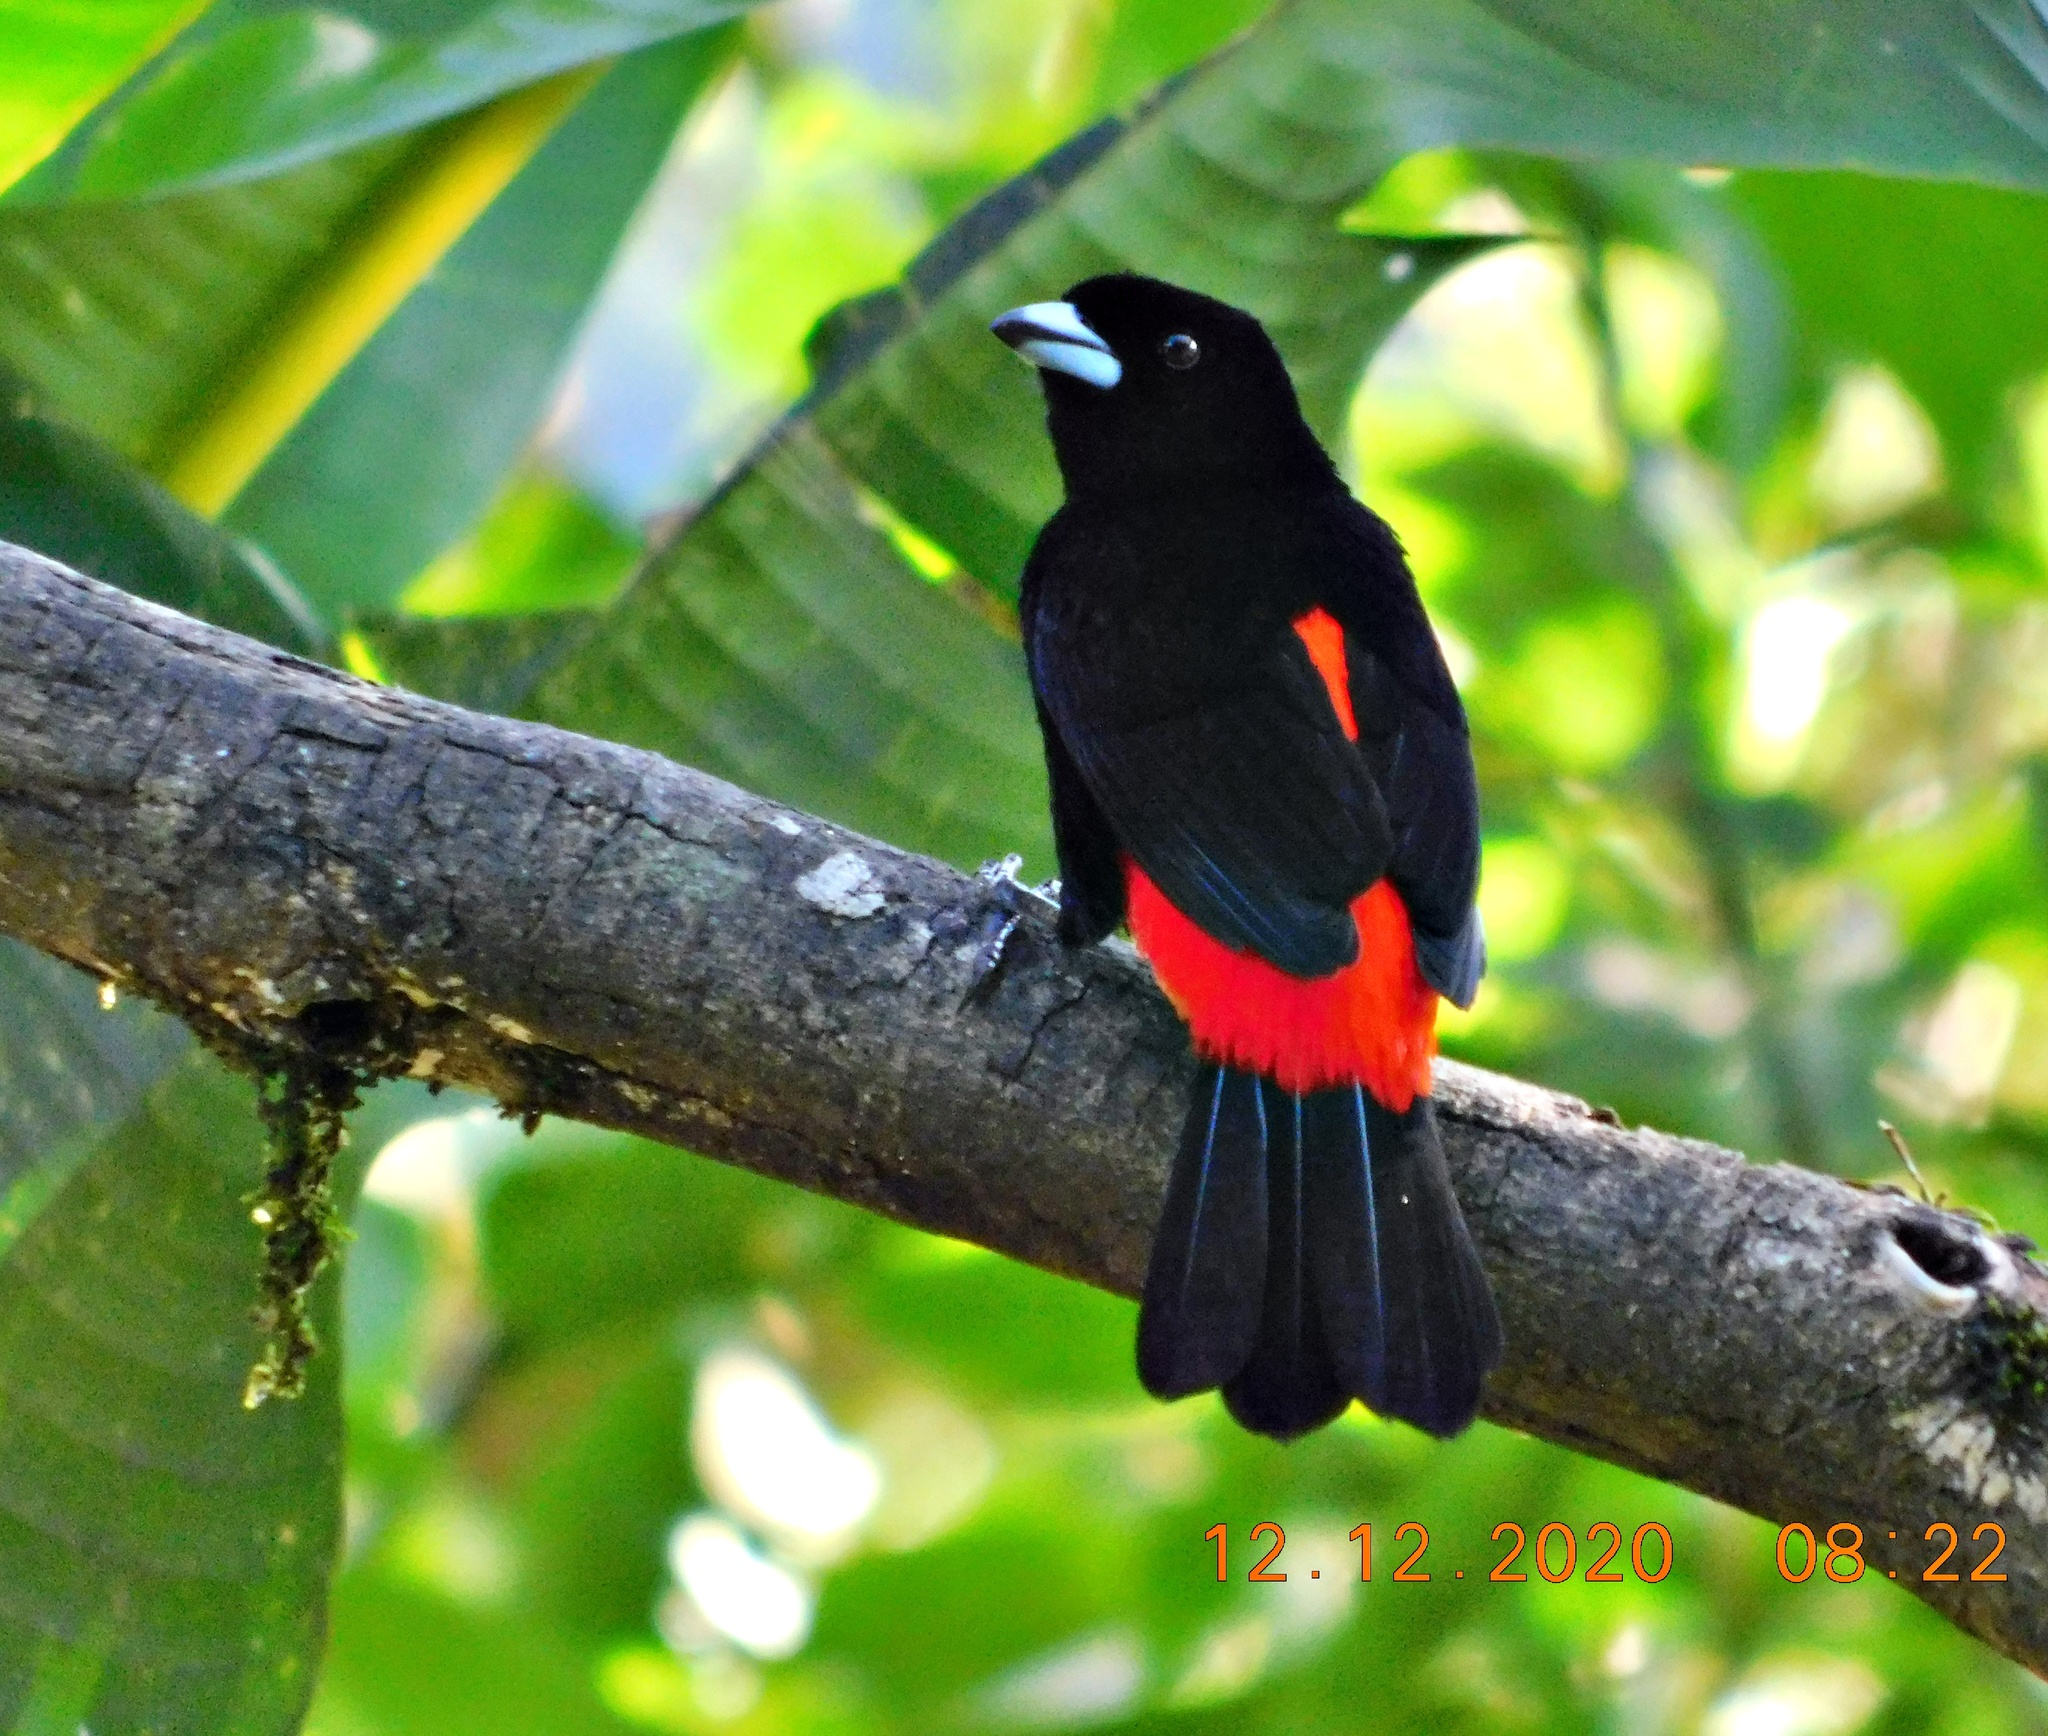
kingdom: Animalia
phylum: Chordata
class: Aves
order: Passeriformes
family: Thraupidae
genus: Ramphocelus
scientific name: Ramphocelus passerinii
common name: Passerini's tanager
